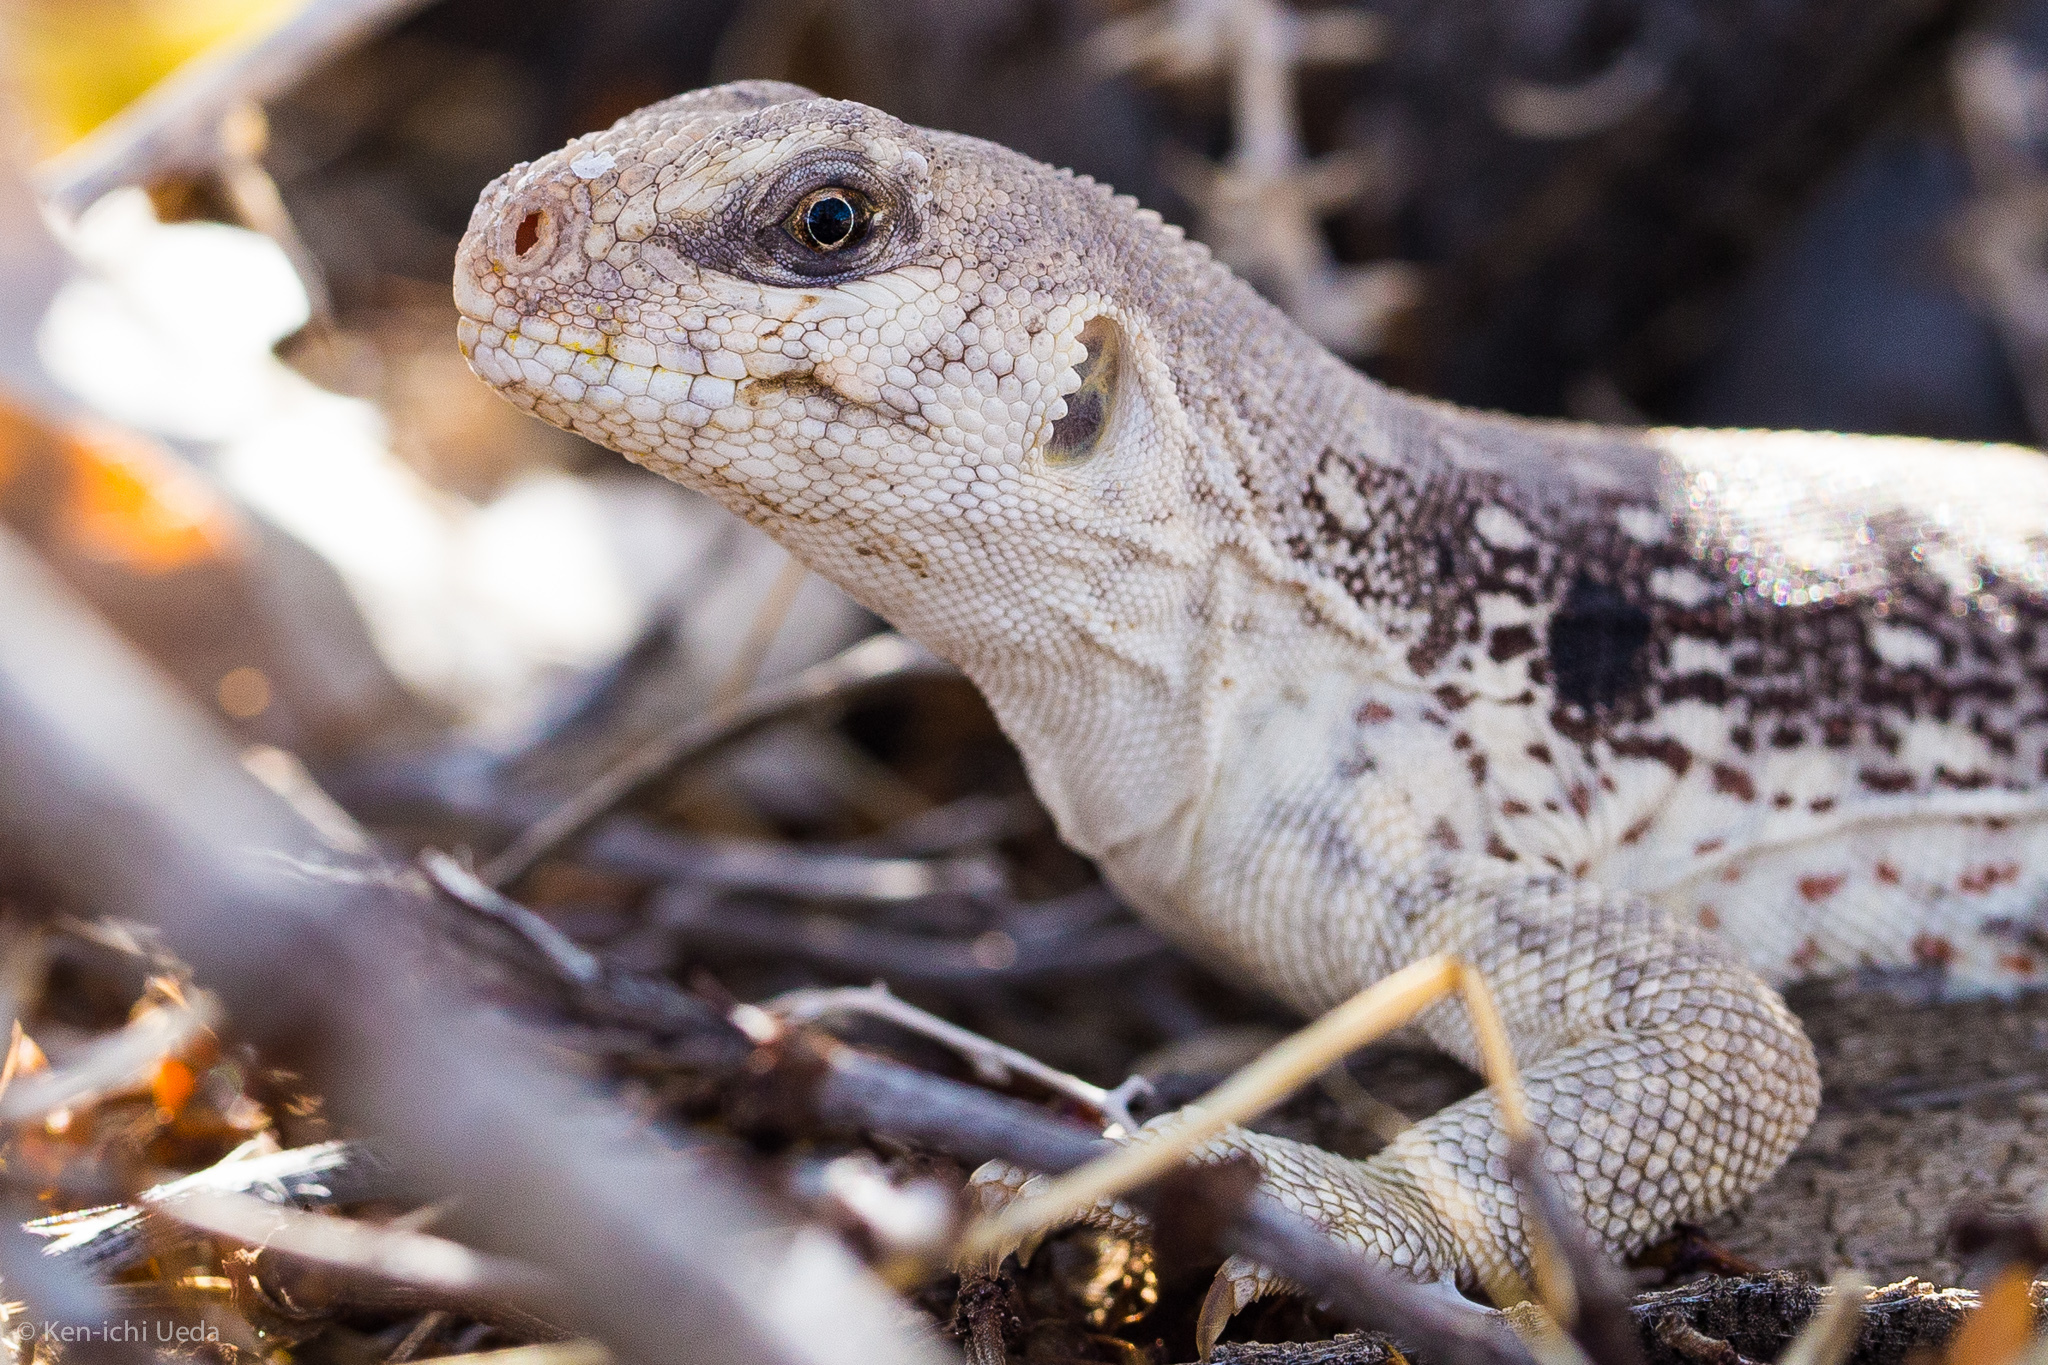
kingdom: Animalia
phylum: Chordata
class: Squamata
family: Iguanidae
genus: Dipsosaurus
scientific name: Dipsosaurus dorsalis
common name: Desert iguana
